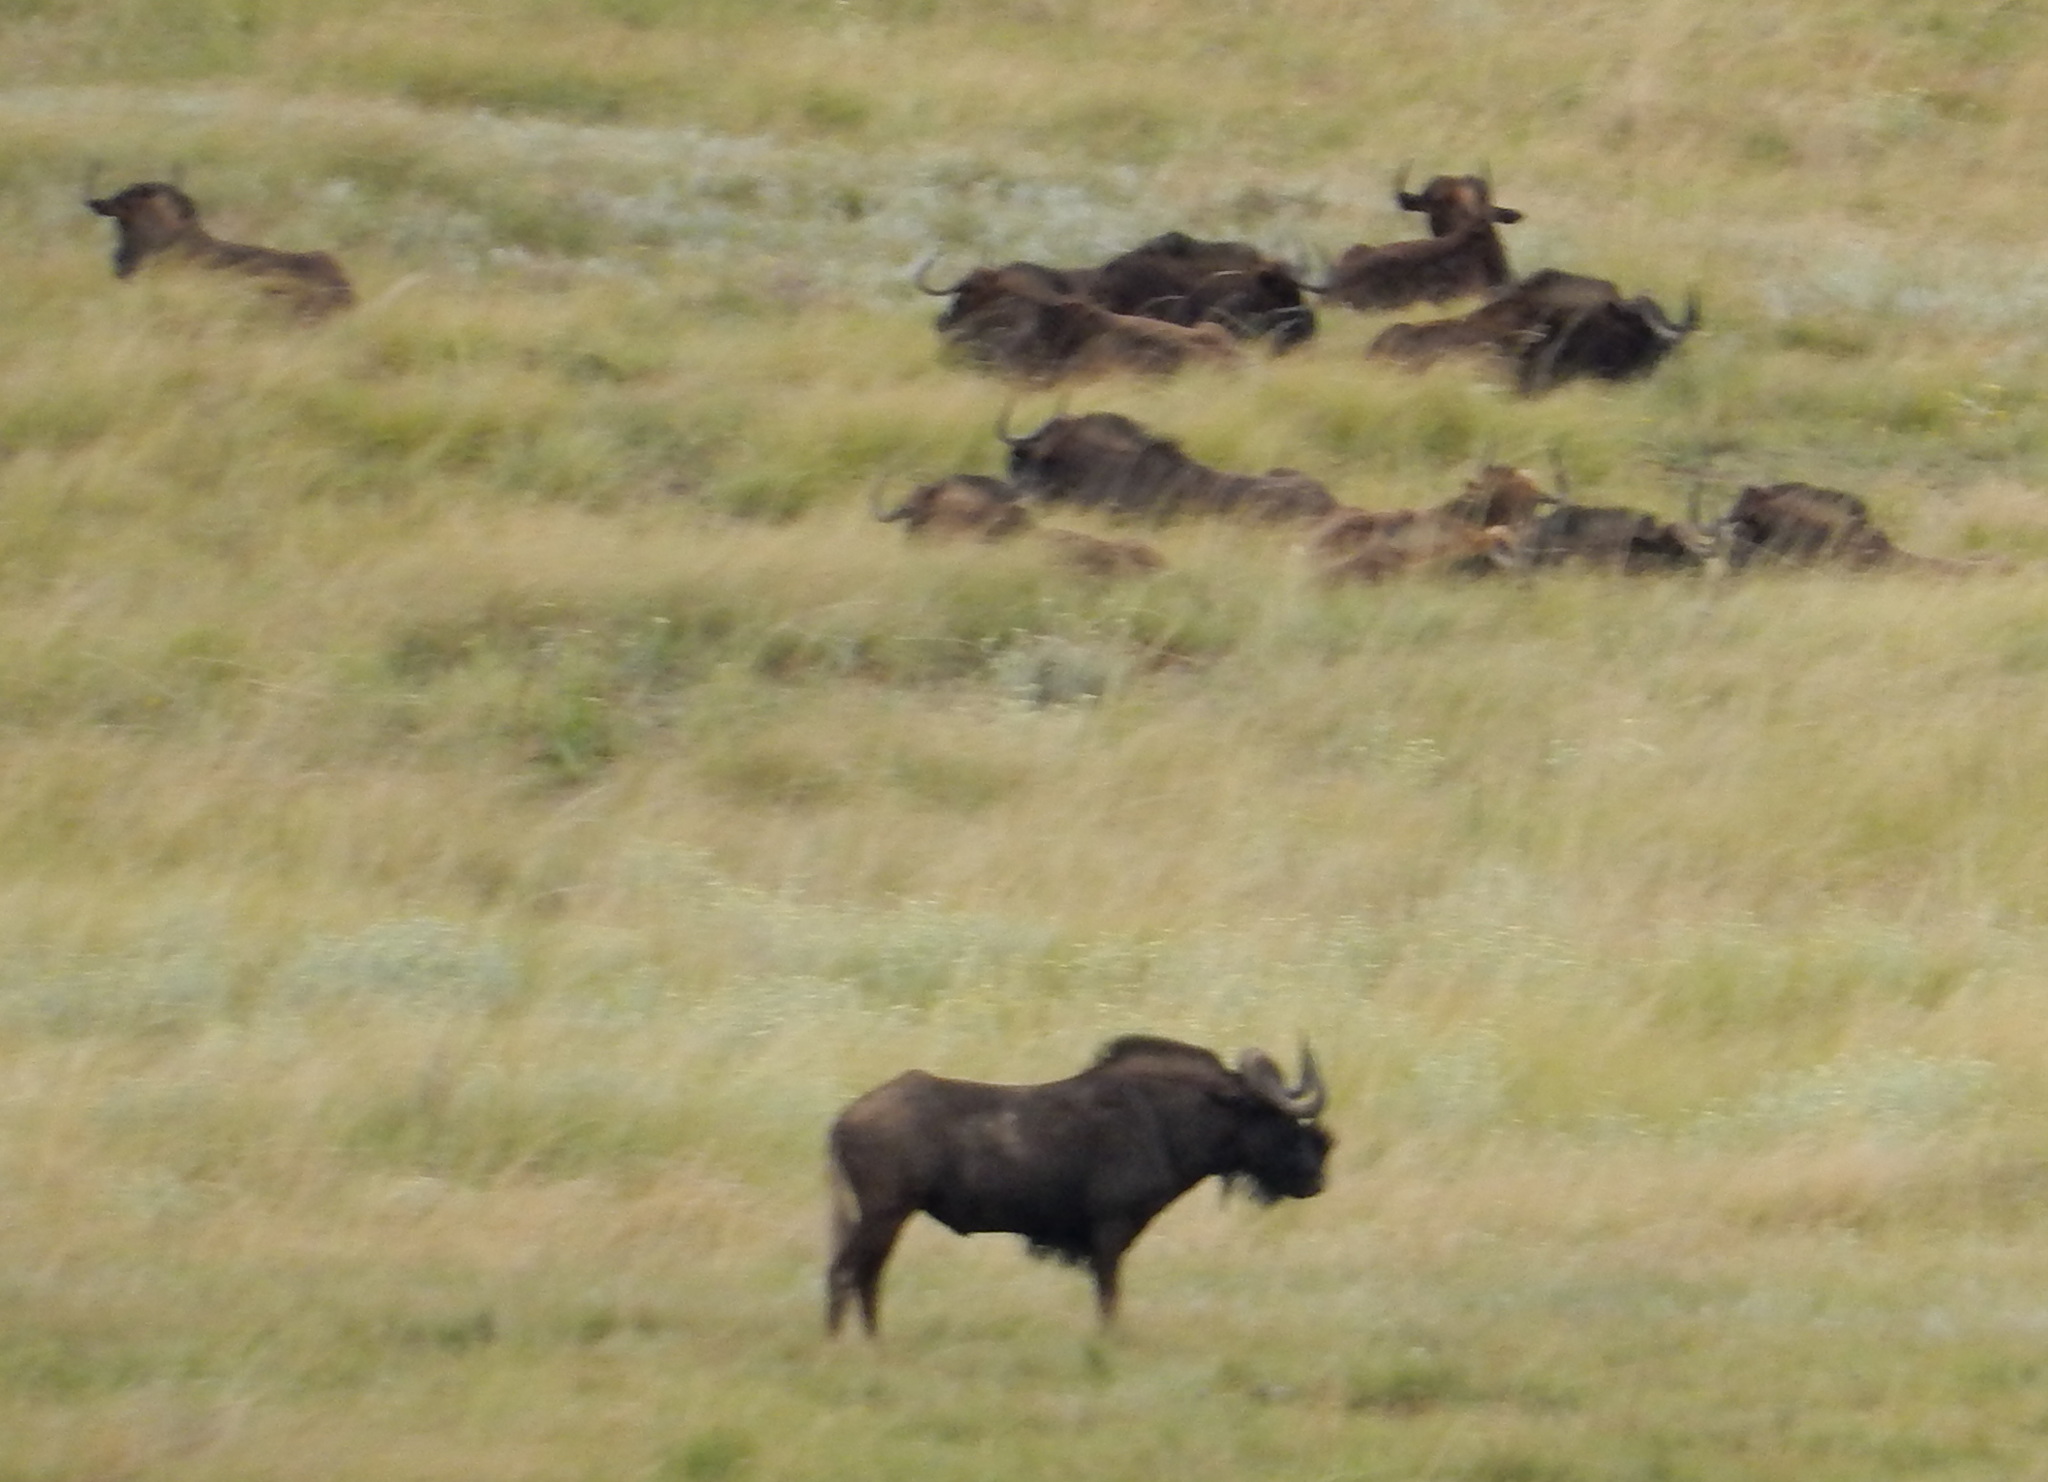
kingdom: Animalia
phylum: Chordata
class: Mammalia
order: Artiodactyla
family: Bovidae
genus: Connochaetes
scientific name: Connochaetes gnou
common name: Black wildebeest
